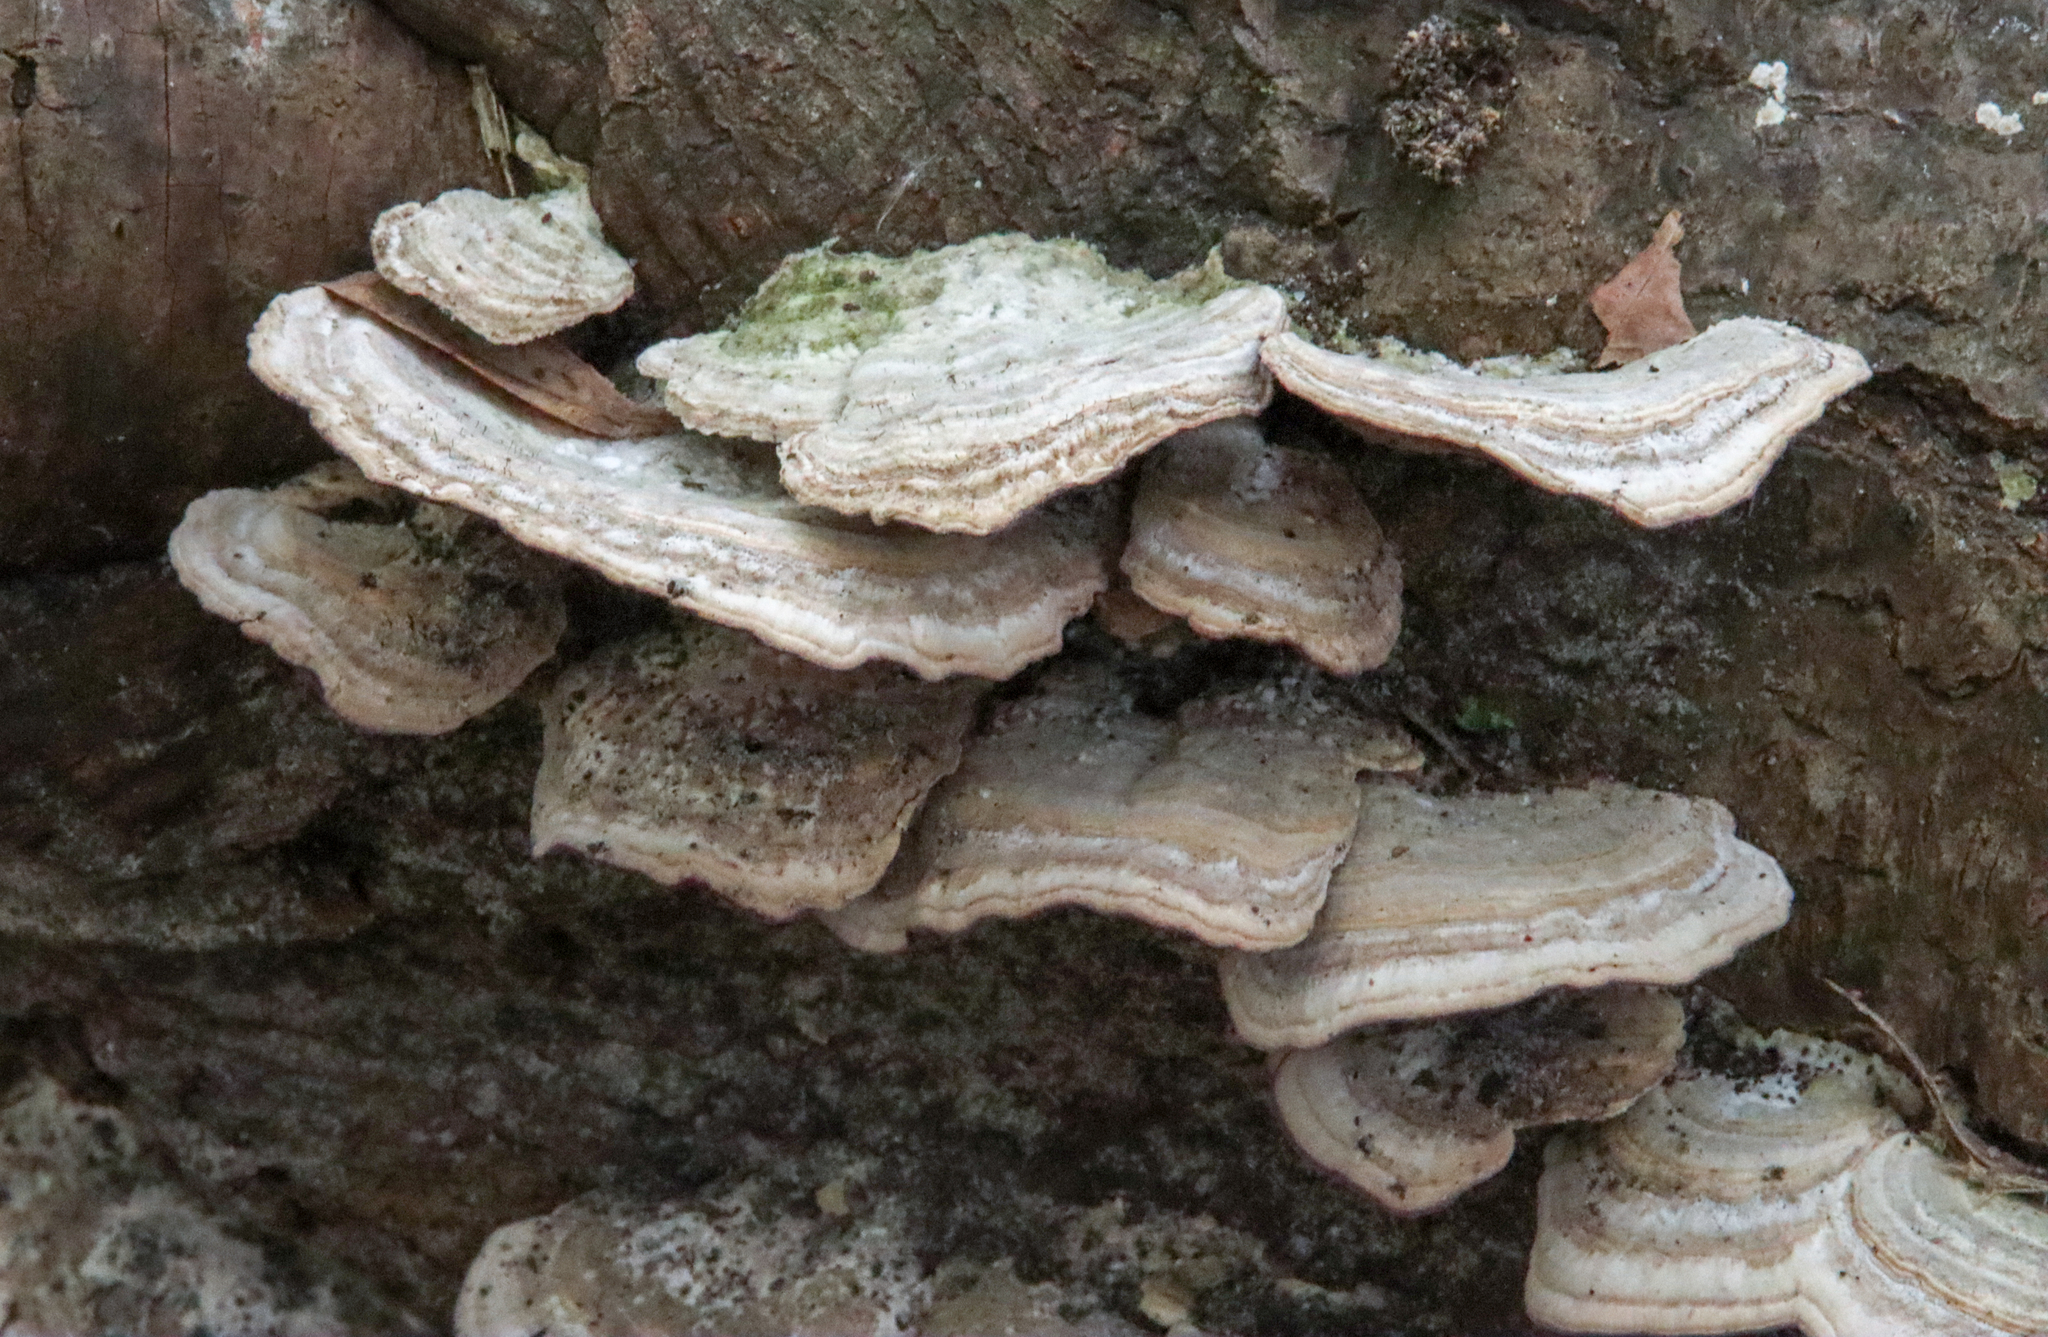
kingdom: Fungi
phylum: Basidiomycota
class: Agaricomycetes
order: Hymenochaetales
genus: Trichaptum
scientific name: Trichaptum biforme
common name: Violet-toothed polypore
